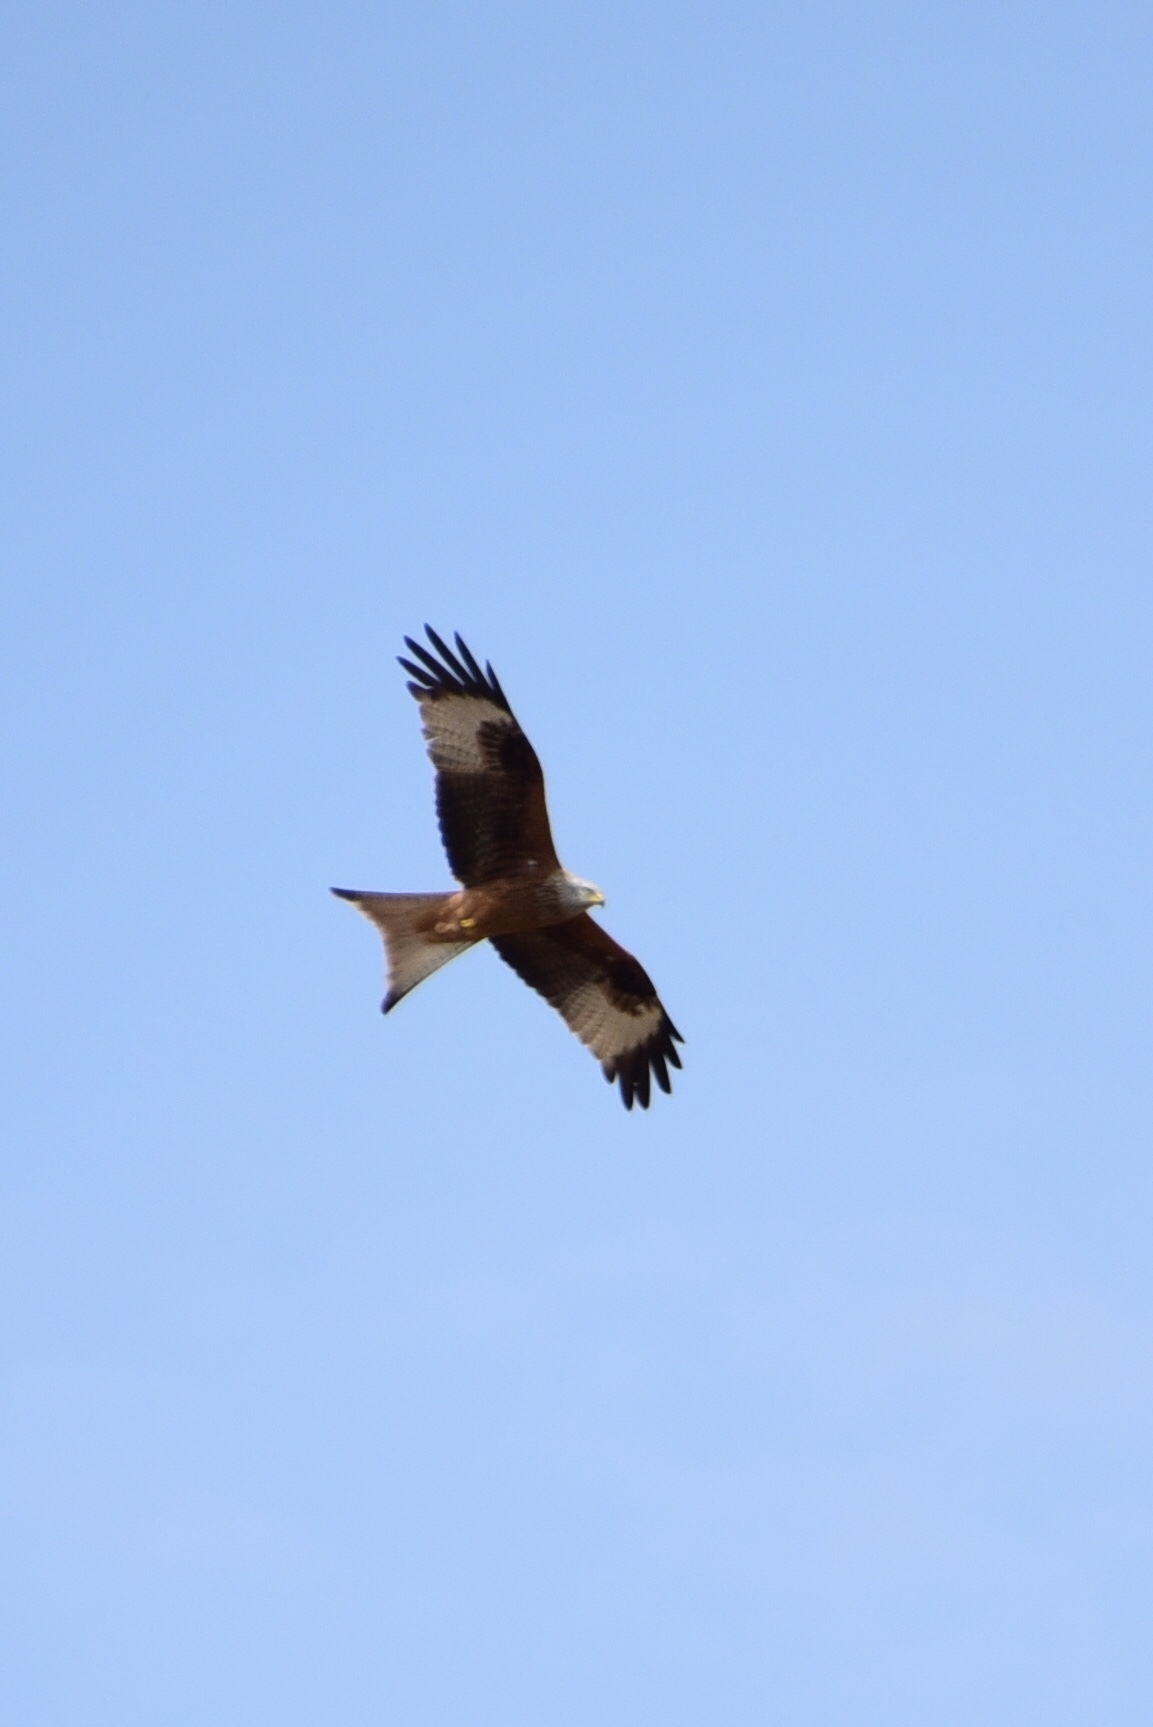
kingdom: Animalia
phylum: Chordata
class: Aves
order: Accipitriformes
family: Accipitridae
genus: Milvus
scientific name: Milvus milvus
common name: Red kite
